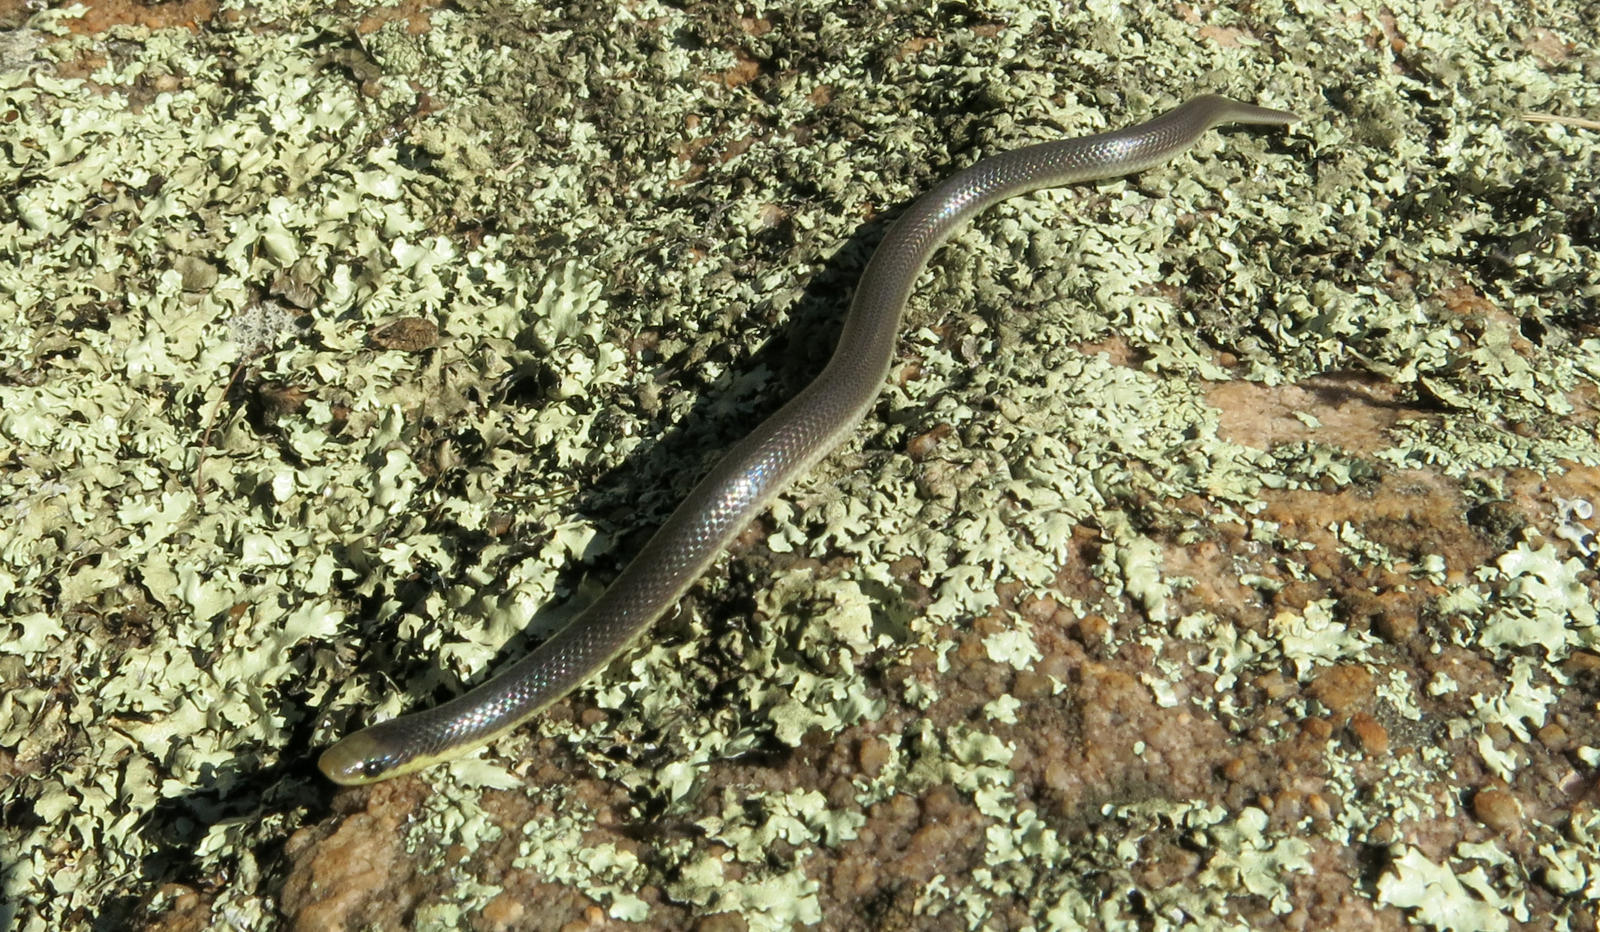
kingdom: Animalia
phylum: Chordata
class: Squamata
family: Prosymnidae
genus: Prosymna
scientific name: Prosymna stuhlmanni
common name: East african shovel-snout snake
